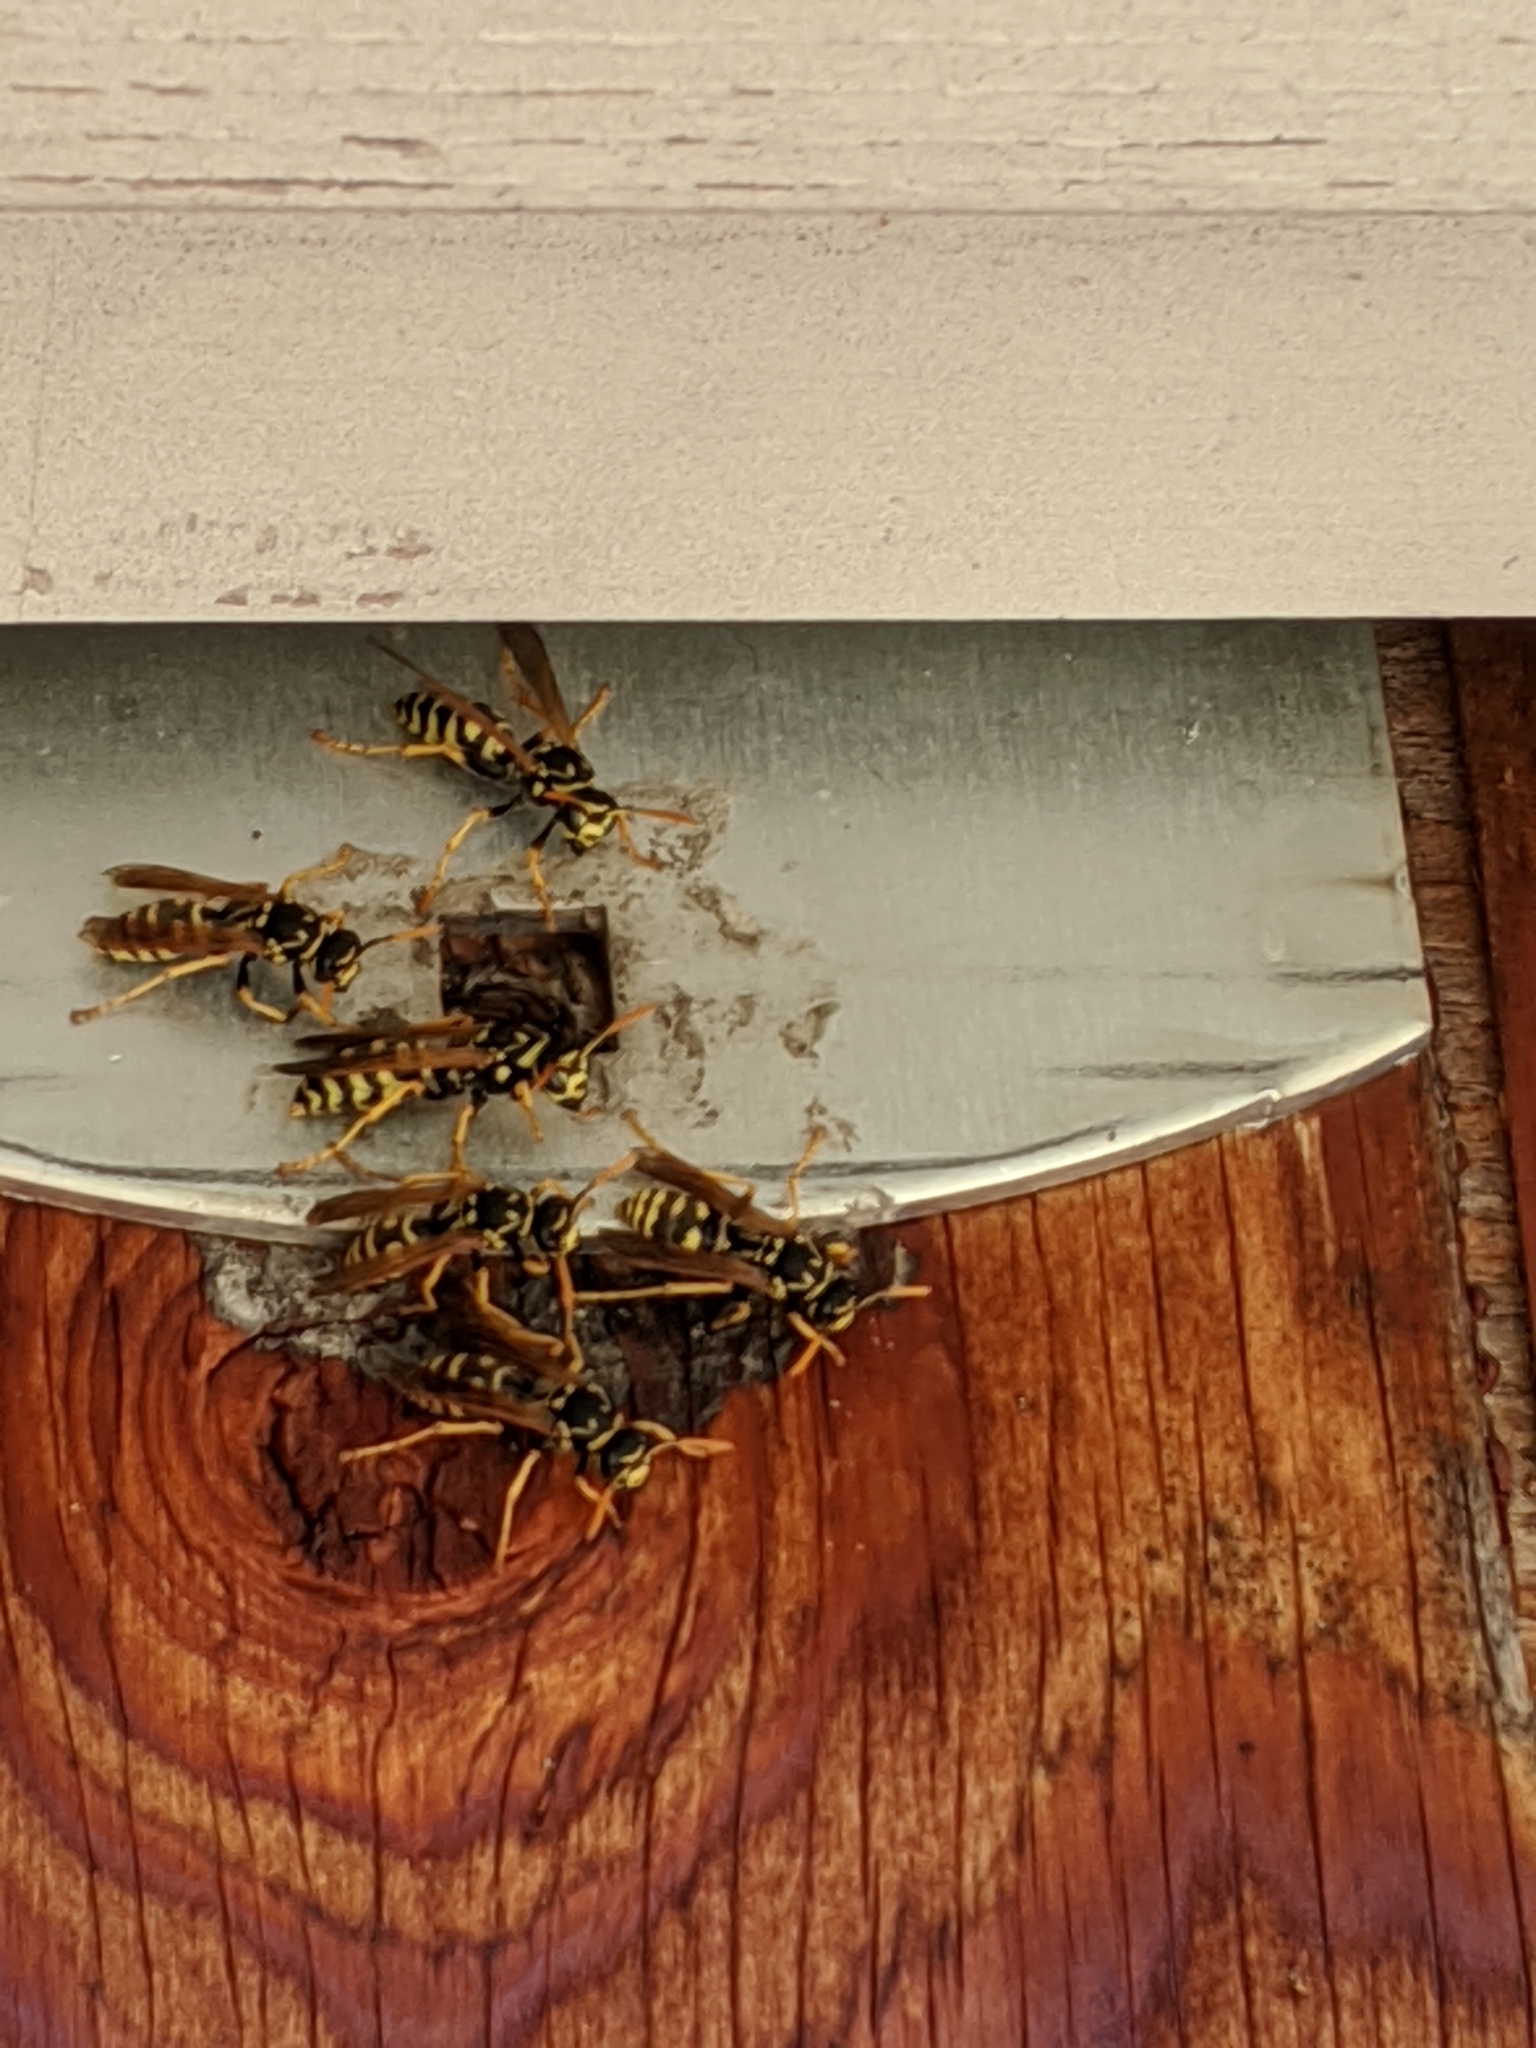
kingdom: Animalia
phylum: Arthropoda
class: Insecta
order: Hymenoptera
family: Eumenidae
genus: Polistes
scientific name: Polistes dominula
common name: Paper wasp
